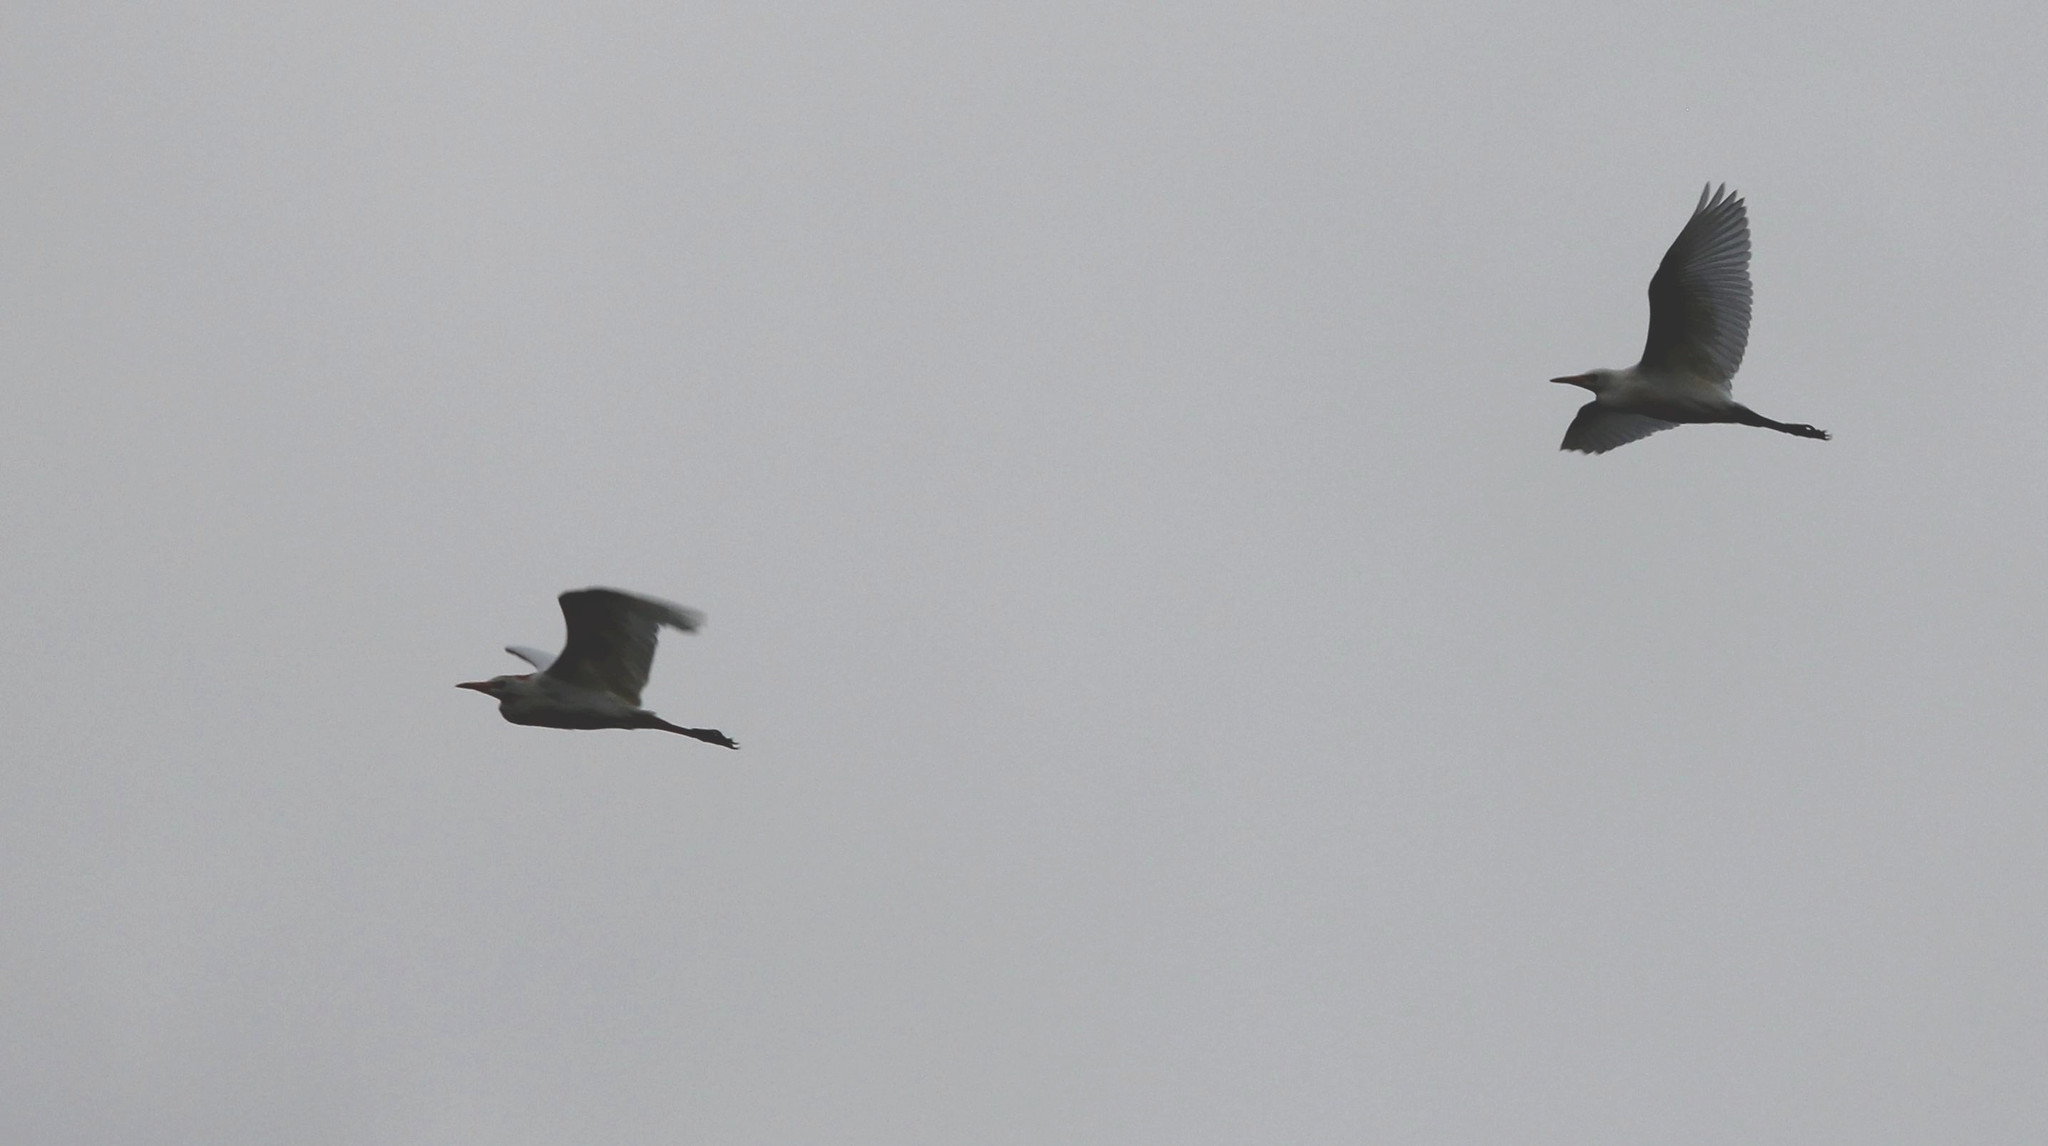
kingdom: Animalia
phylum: Chordata
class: Aves
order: Pelecaniformes
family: Ardeidae
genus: Bubulcus
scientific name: Bubulcus ibis
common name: Cattle egret
